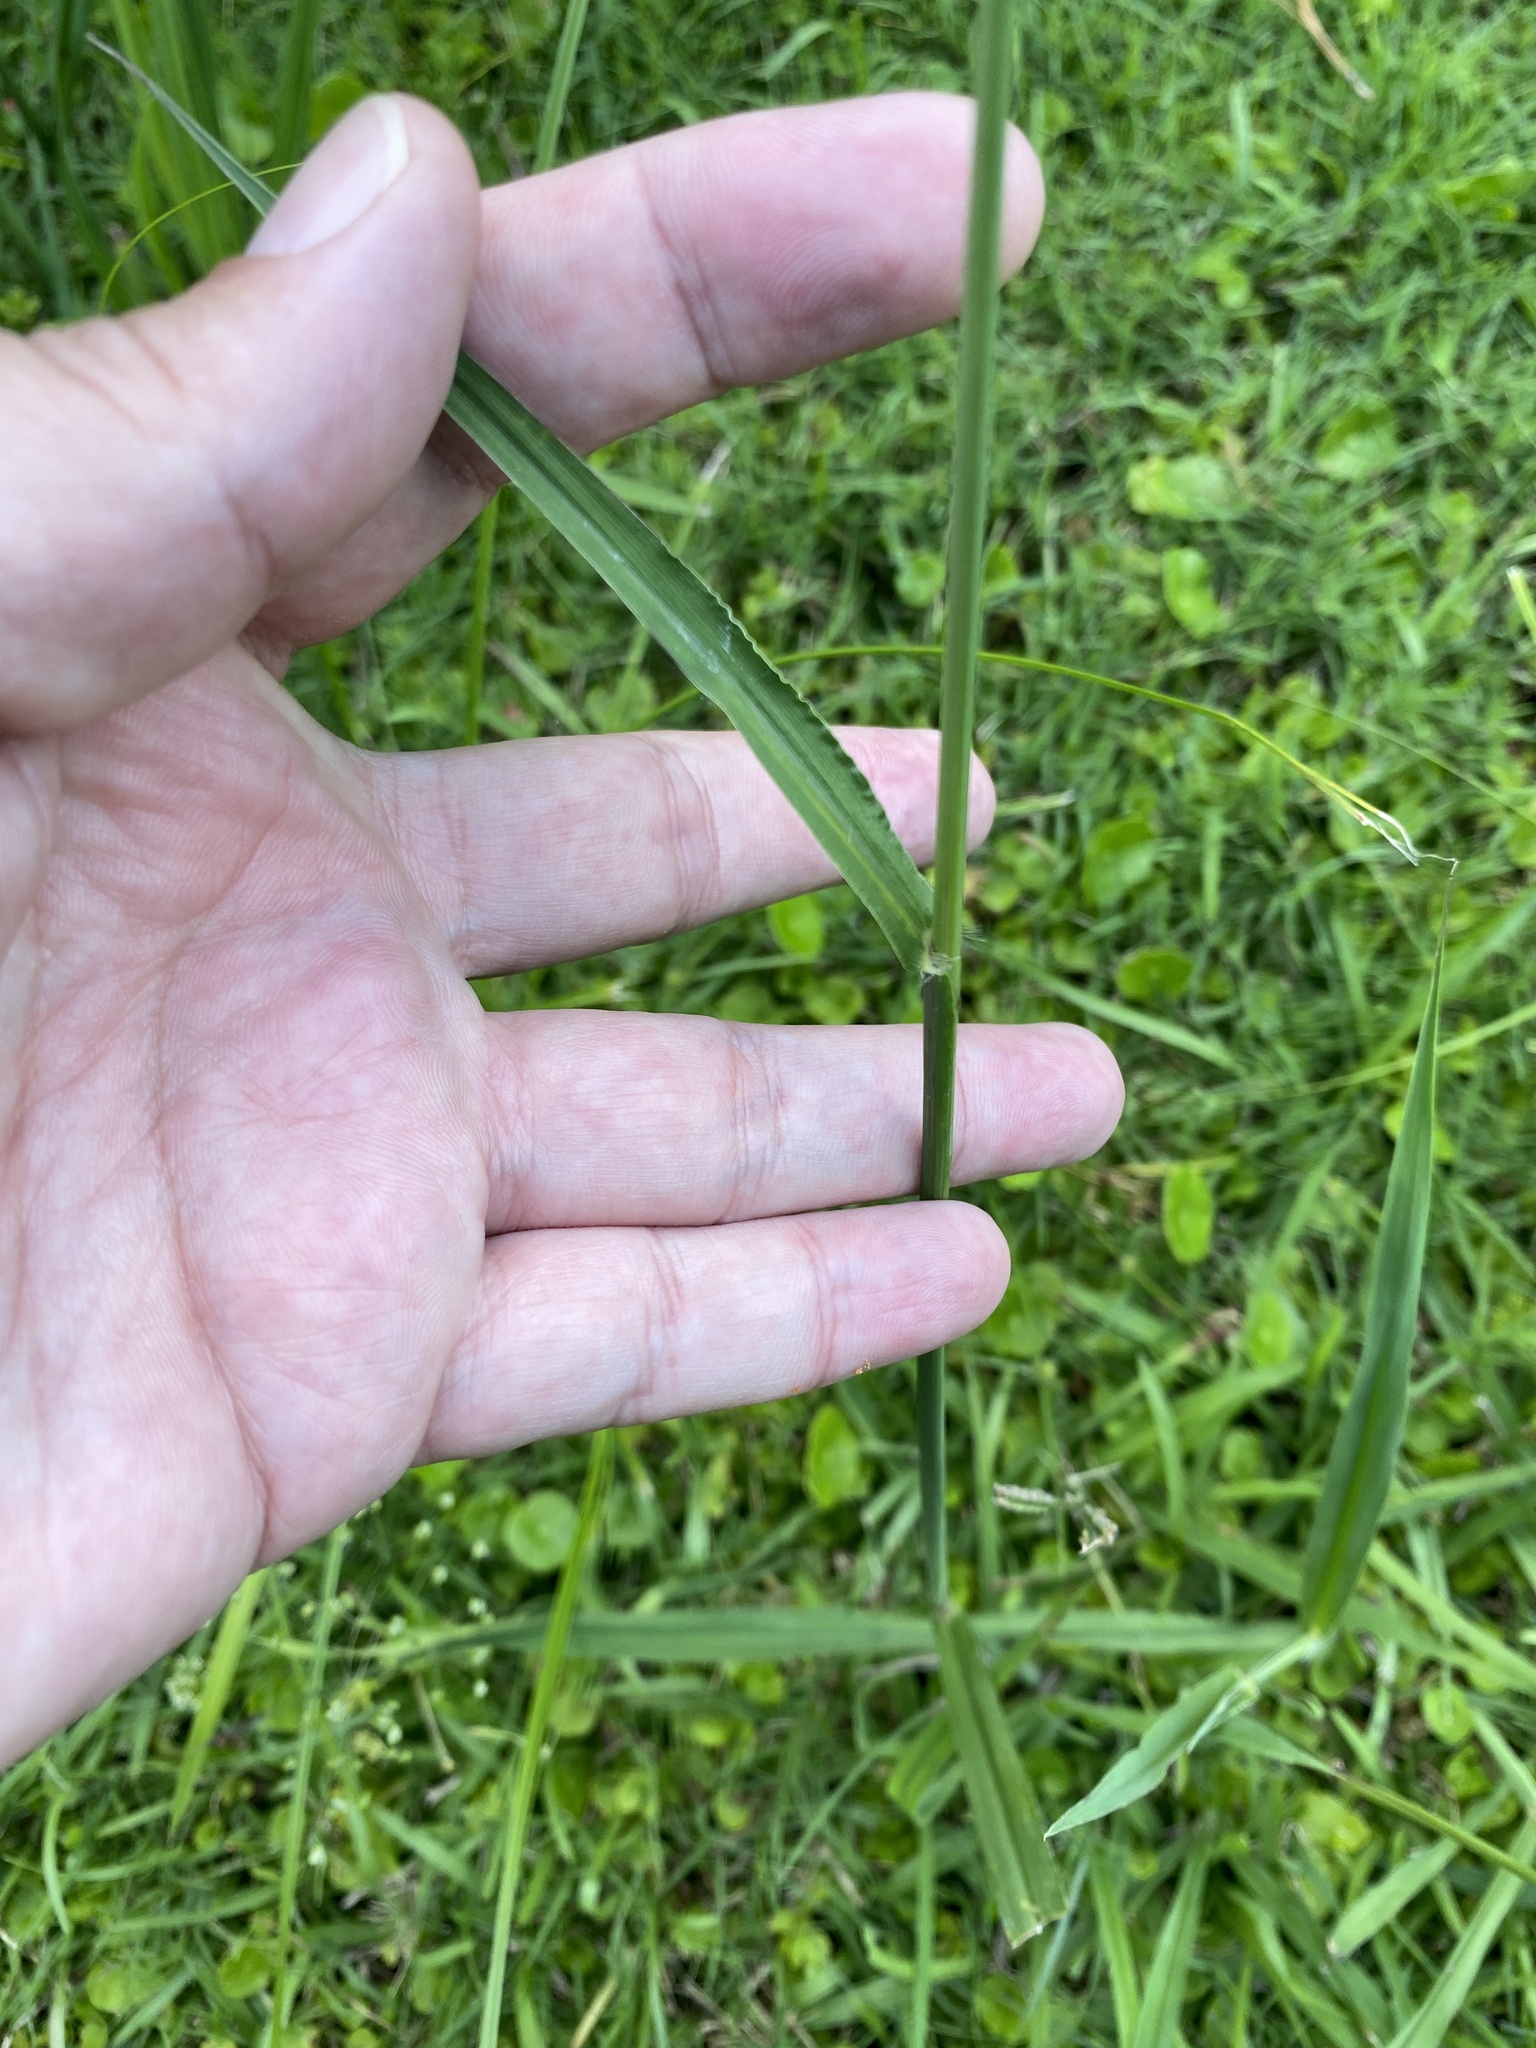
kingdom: Plantae
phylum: Tracheophyta
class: Liliopsida
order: Poales
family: Poaceae
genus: Paspalum
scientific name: Paspalum urvillei
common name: Vasey's grass
